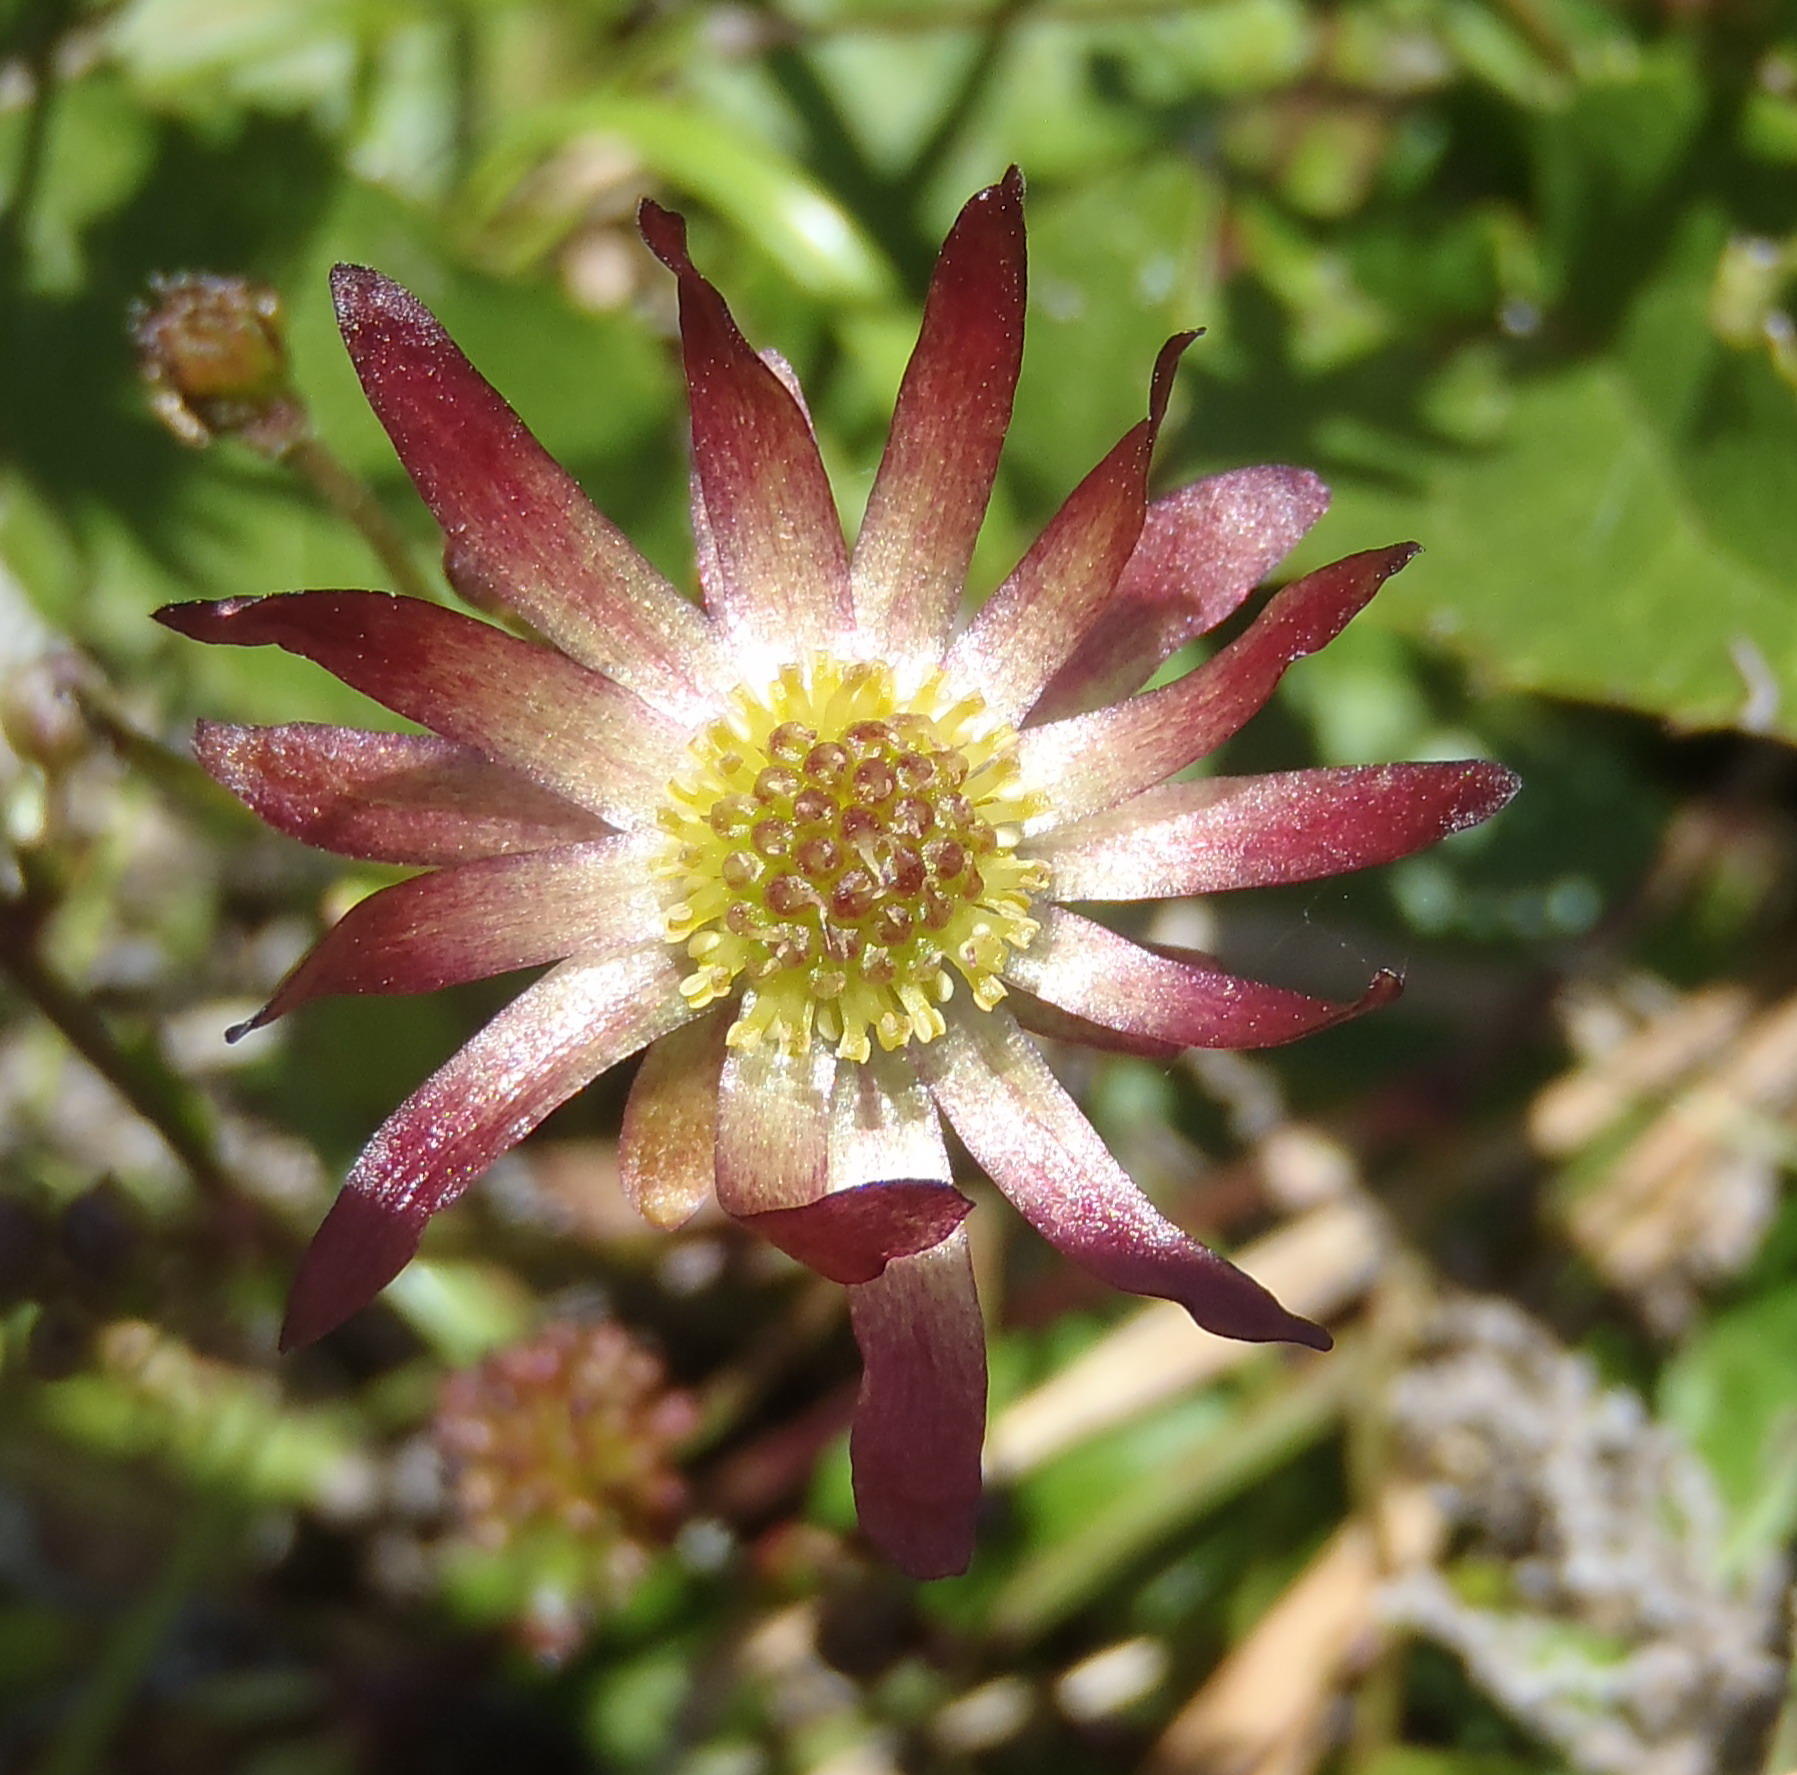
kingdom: Plantae
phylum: Tracheophyta
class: Magnoliopsida
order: Ranunculales
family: Ranunculaceae
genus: Knowltonia
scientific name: Knowltonia vesicatoria
